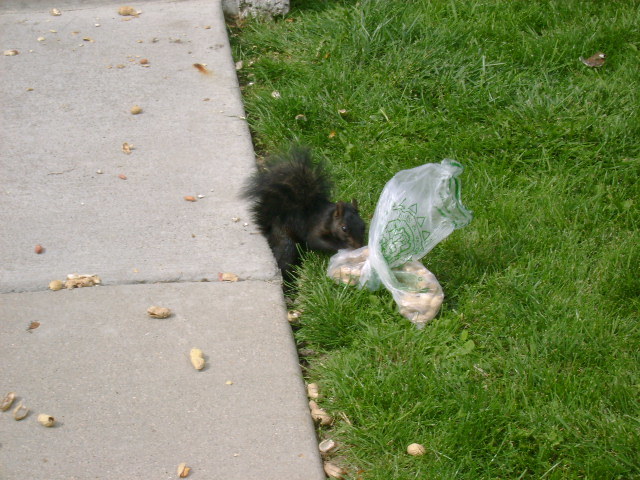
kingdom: Animalia
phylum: Chordata
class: Mammalia
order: Rodentia
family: Sciuridae
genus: Sciurus
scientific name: Sciurus carolinensis
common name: Eastern gray squirrel
